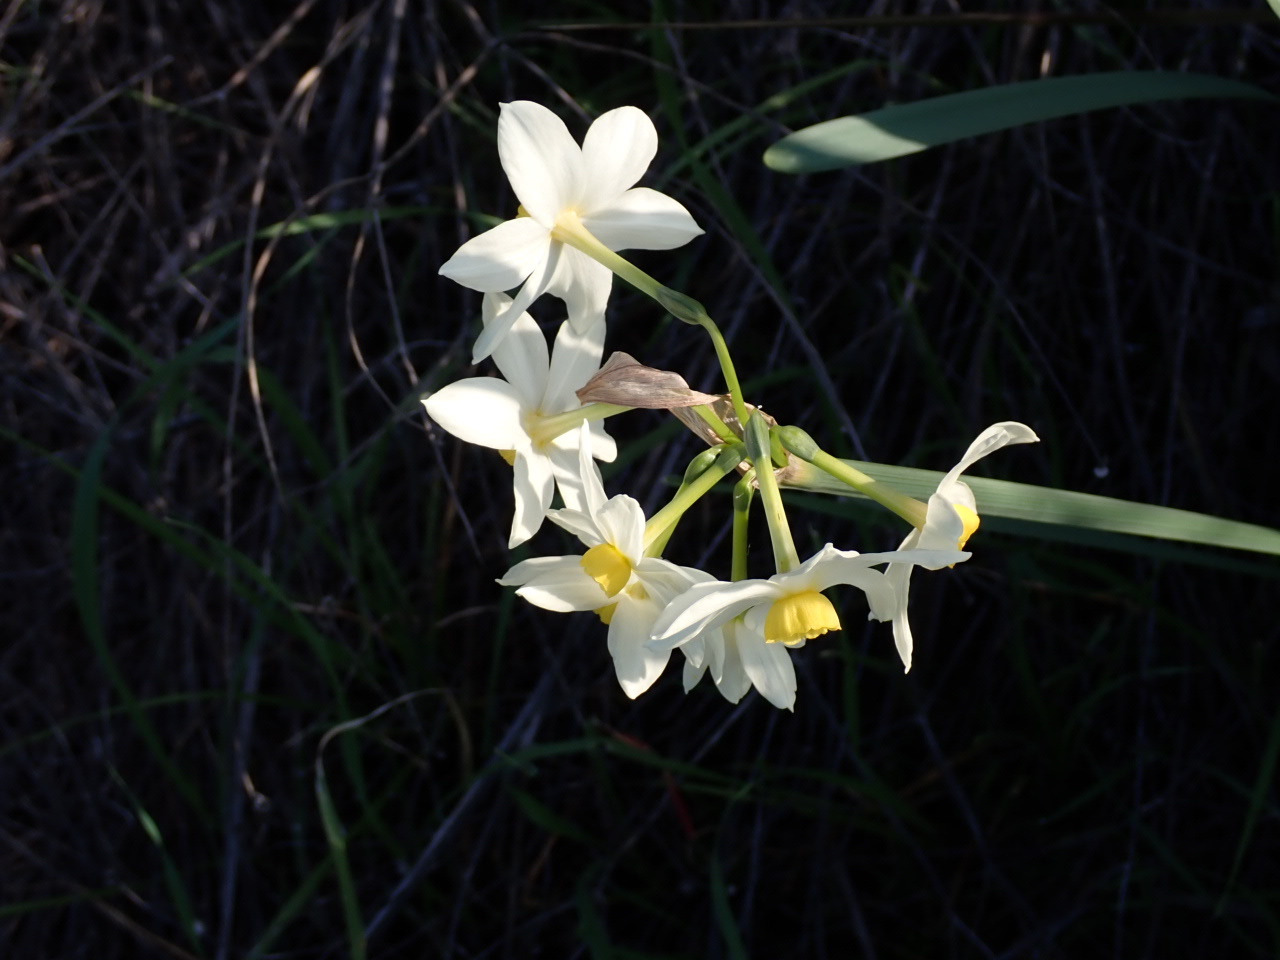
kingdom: Plantae
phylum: Tracheophyta
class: Liliopsida
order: Asparagales
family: Amaryllidaceae
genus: Narcissus
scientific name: Narcissus tazetta
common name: Bunch-flowered daffodil
